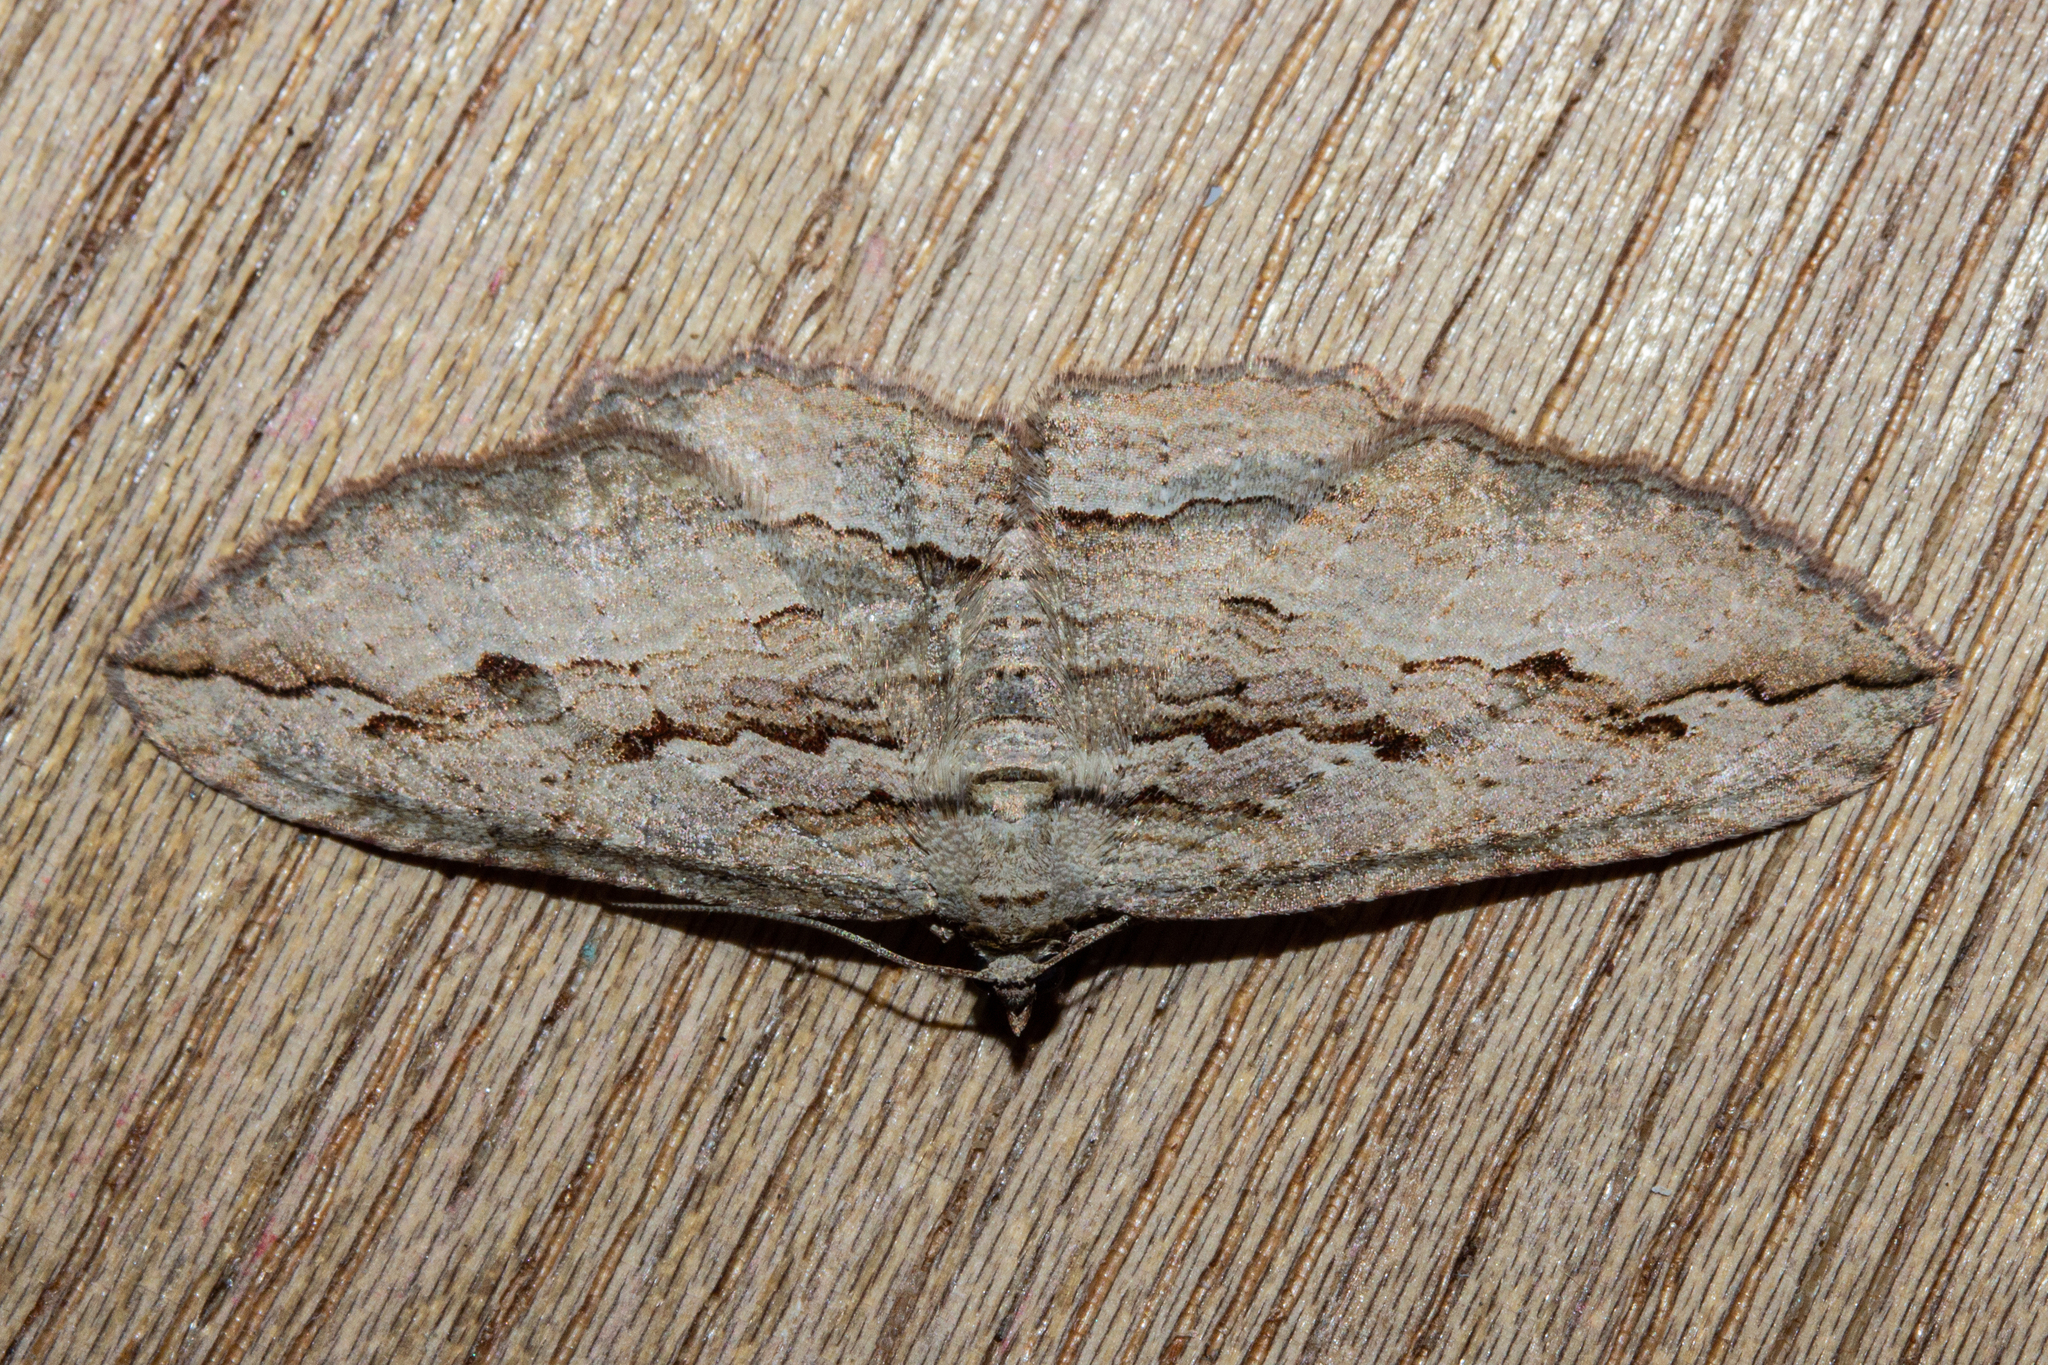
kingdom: Animalia
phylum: Arthropoda
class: Insecta
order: Lepidoptera
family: Geometridae
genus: Austrocidaria
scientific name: Austrocidaria gobiata
